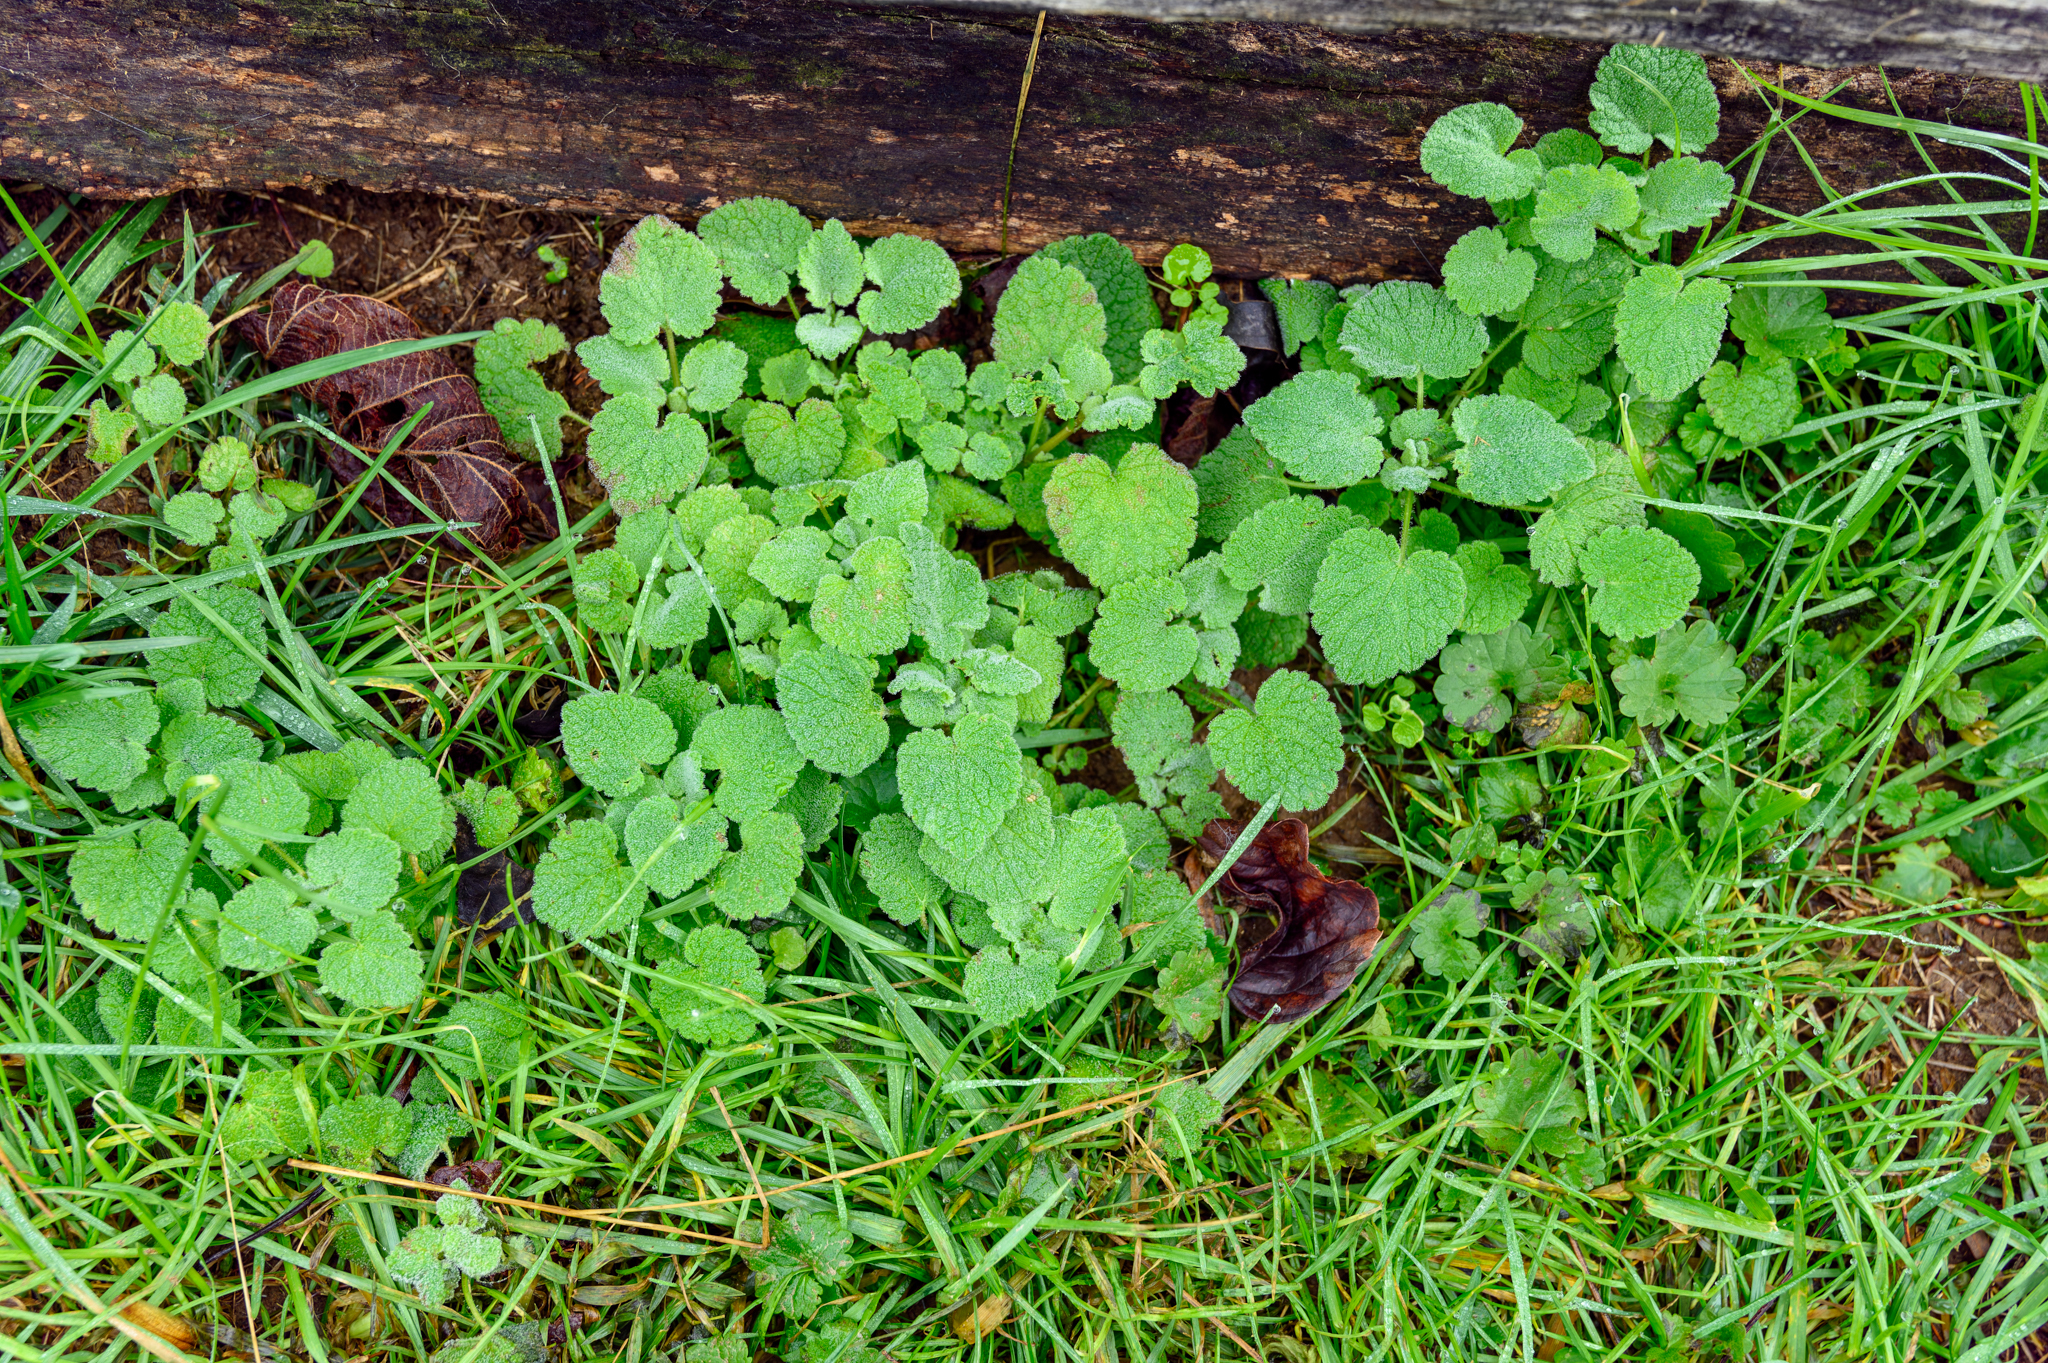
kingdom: Plantae
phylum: Tracheophyta
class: Magnoliopsida
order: Lamiales
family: Lamiaceae
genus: Lamium
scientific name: Lamium purpureum
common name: Red dead-nettle
